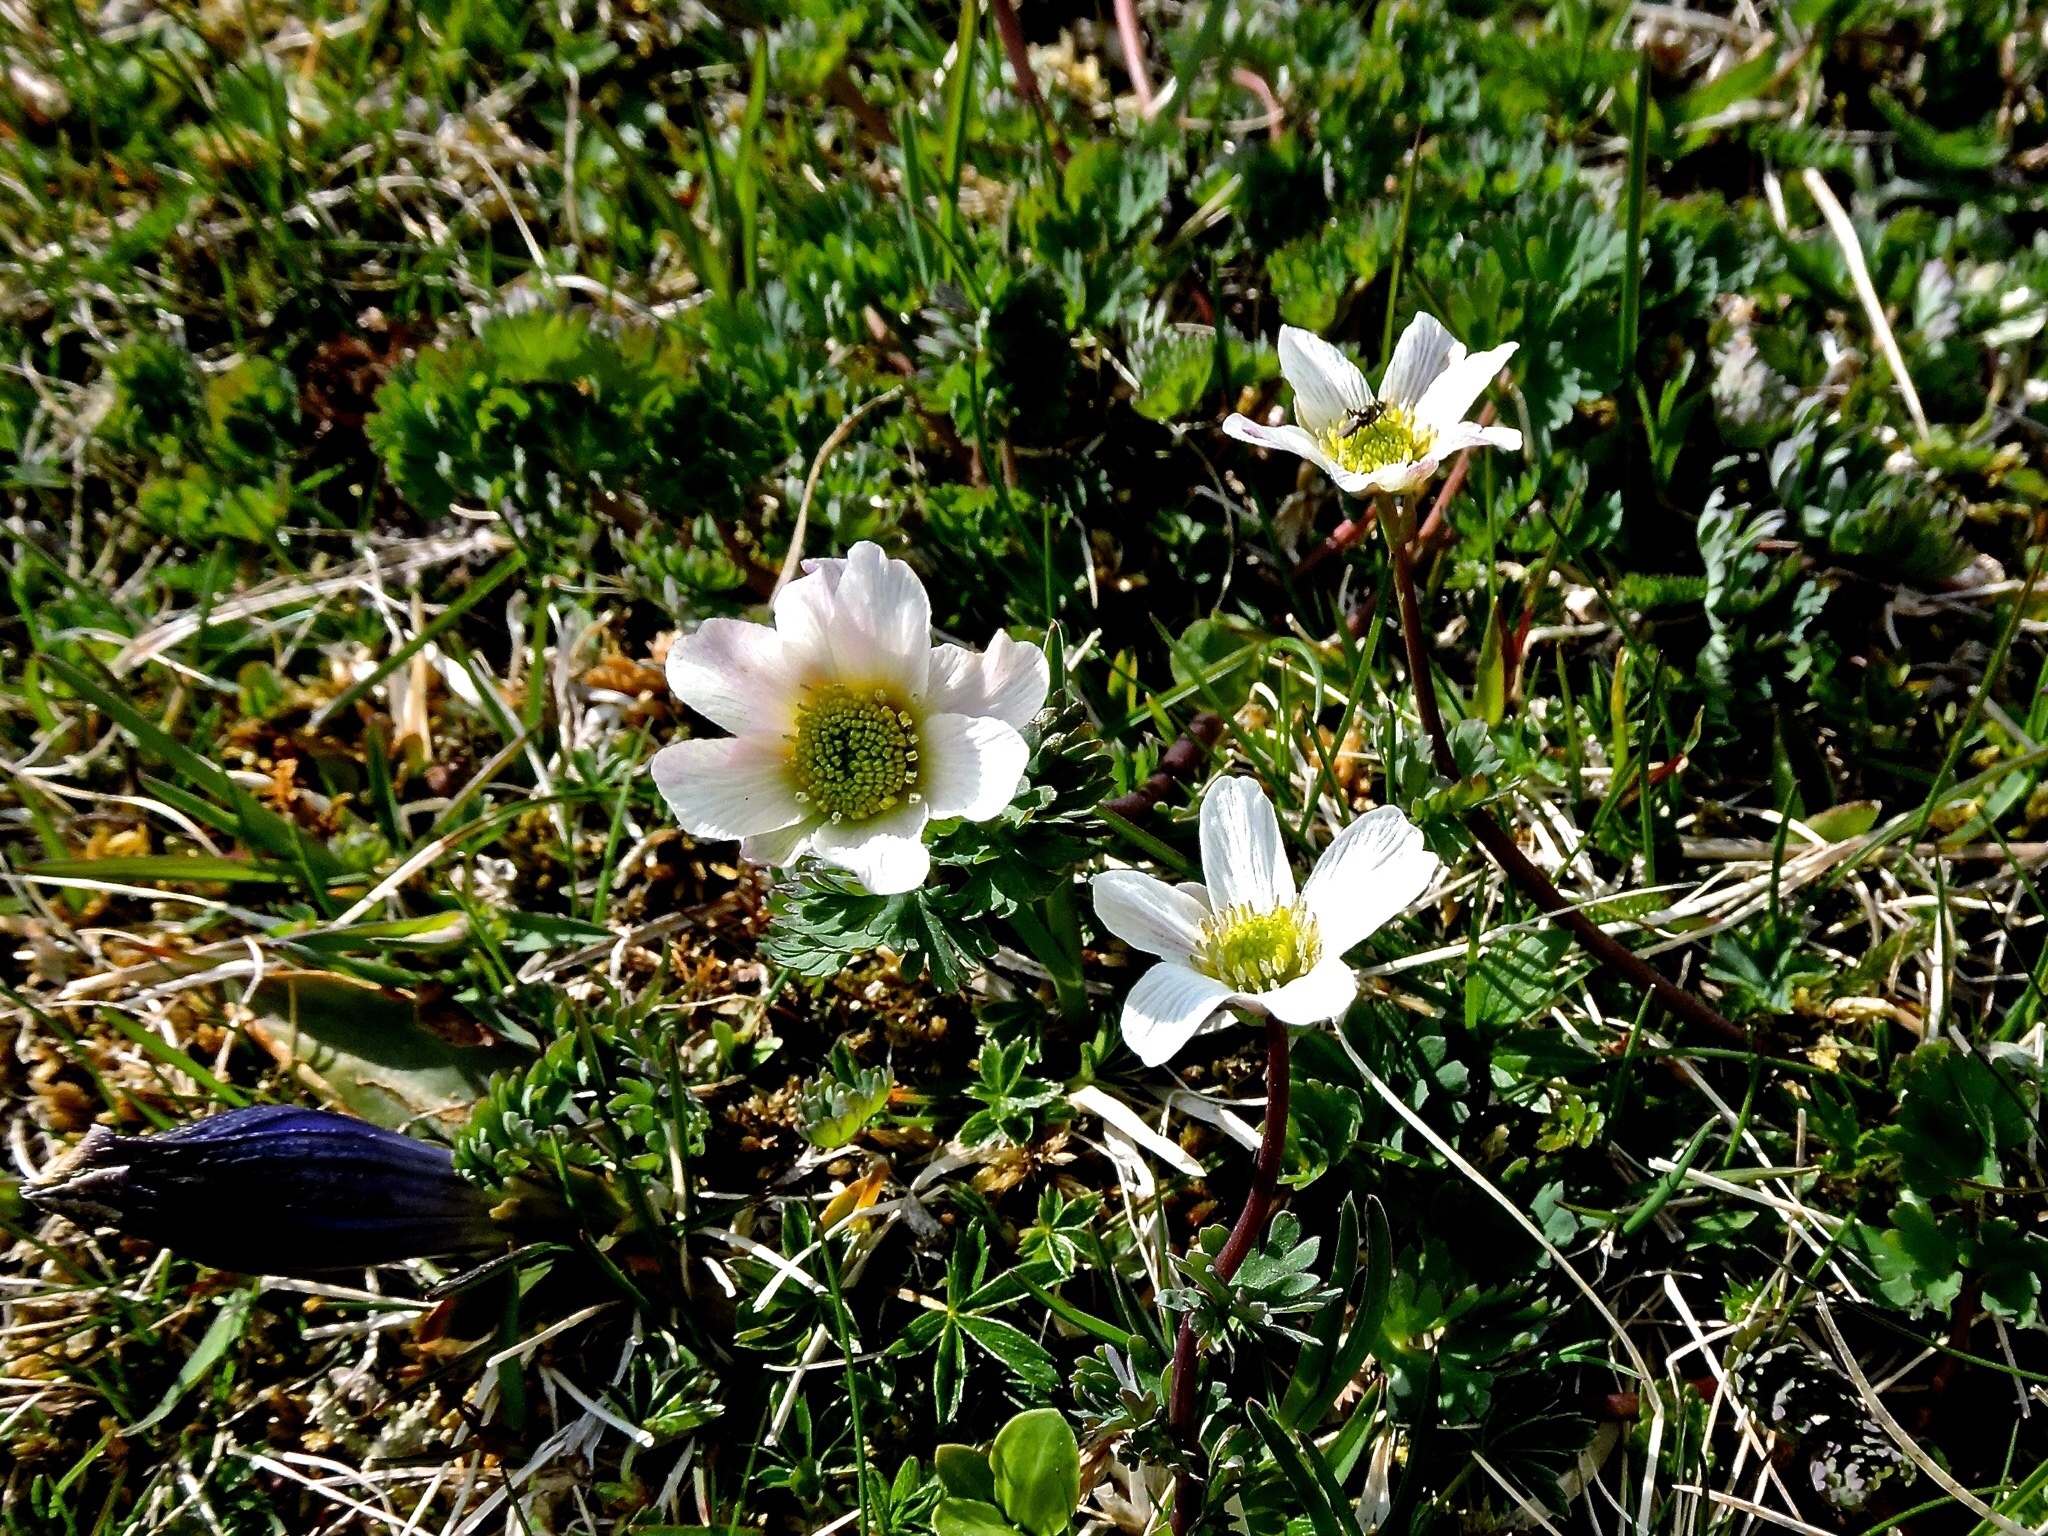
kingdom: Plantae
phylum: Tracheophyta
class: Magnoliopsida
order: Ranunculales
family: Ranunculaceae
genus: Callianthemum
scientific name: Callianthemum coriandrifolium
